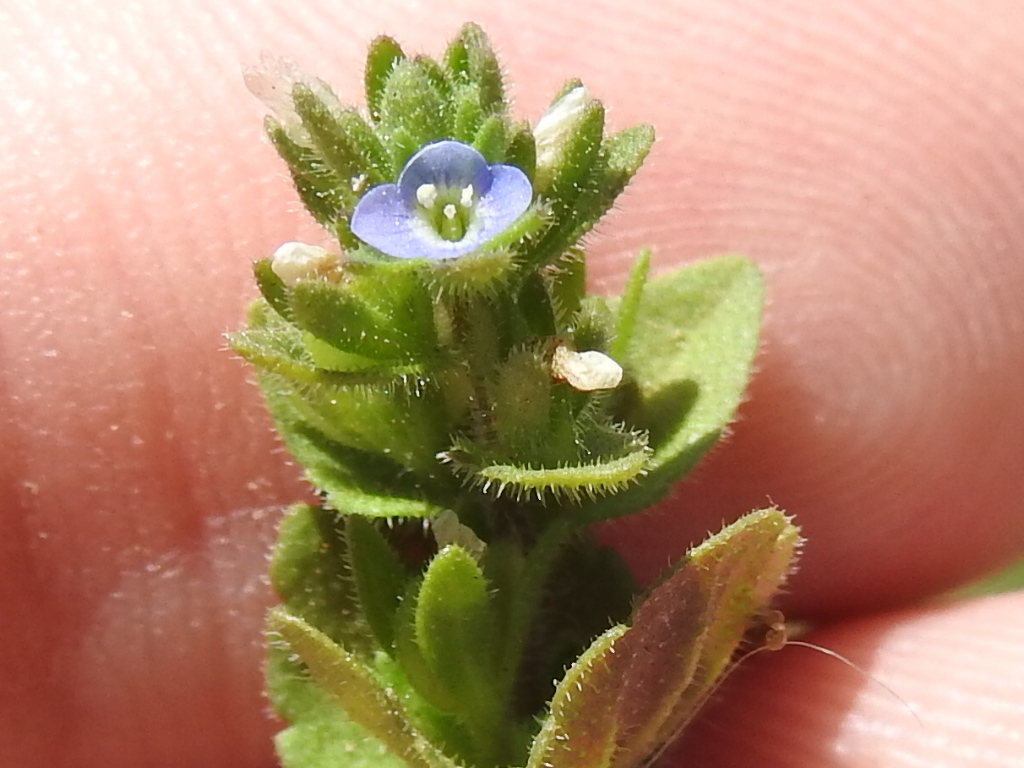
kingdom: Plantae
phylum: Tracheophyta
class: Magnoliopsida
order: Lamiales
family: Plantaginaceae
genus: Veronica
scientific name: Veronica arvensis
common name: Corn speedwell
